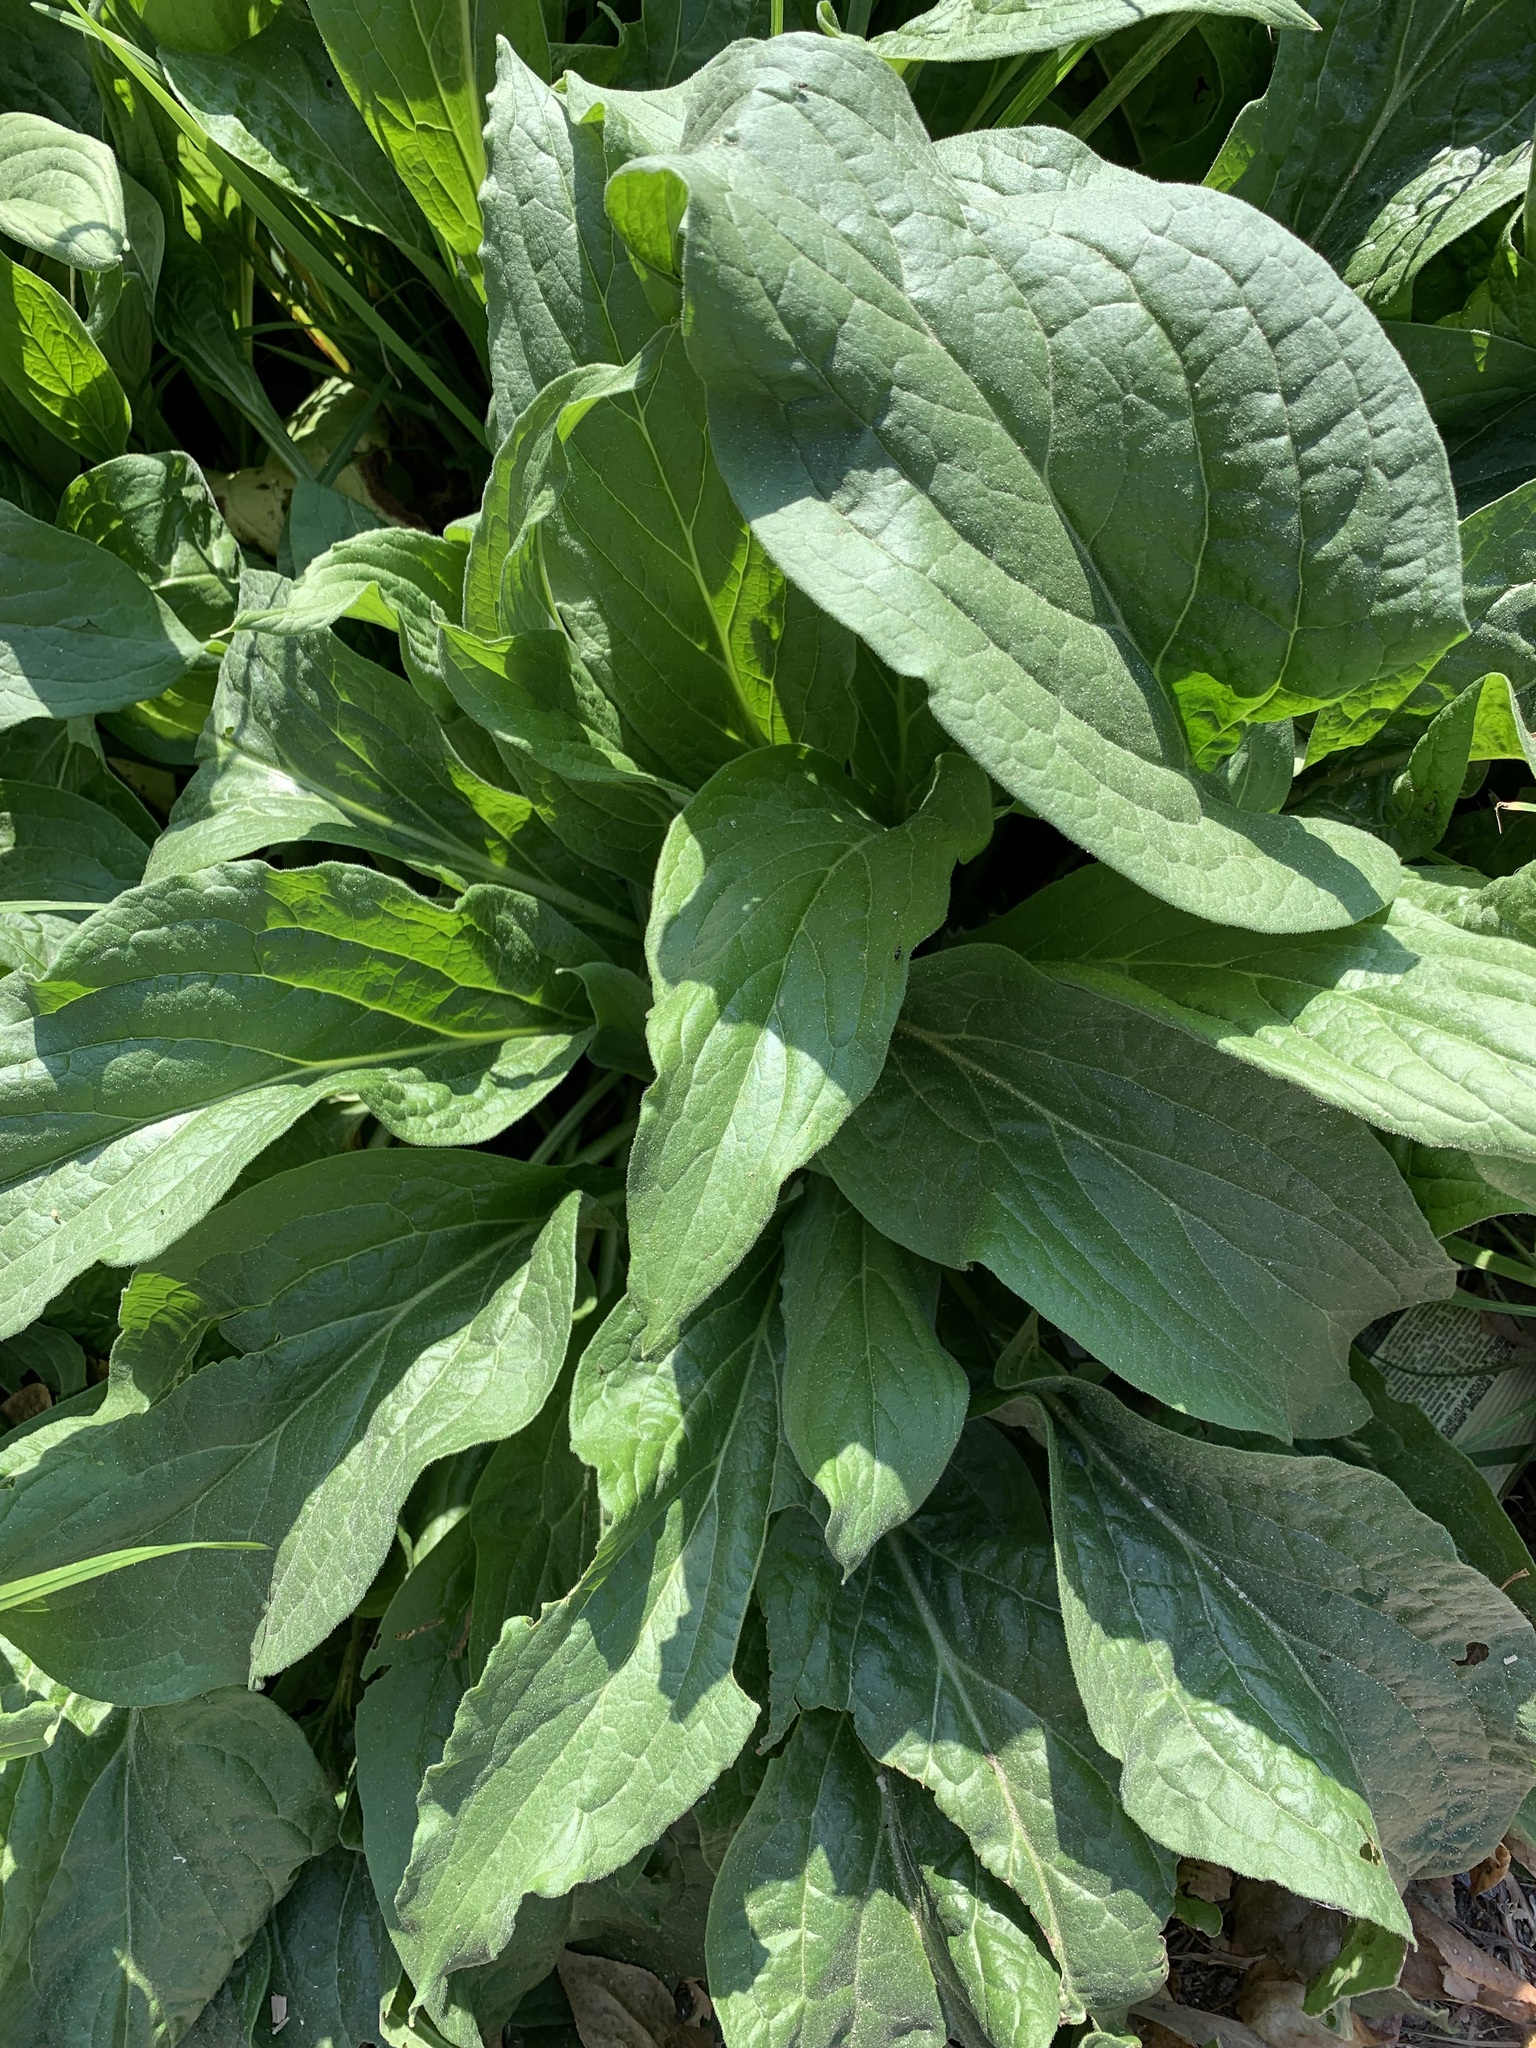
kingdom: Plantae
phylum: Tracheophyta
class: Magnoliopsida
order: Boraginales
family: Boraginaceae
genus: Cynoglossum
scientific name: Cynoglossum officinale
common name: Hound's-tongue
